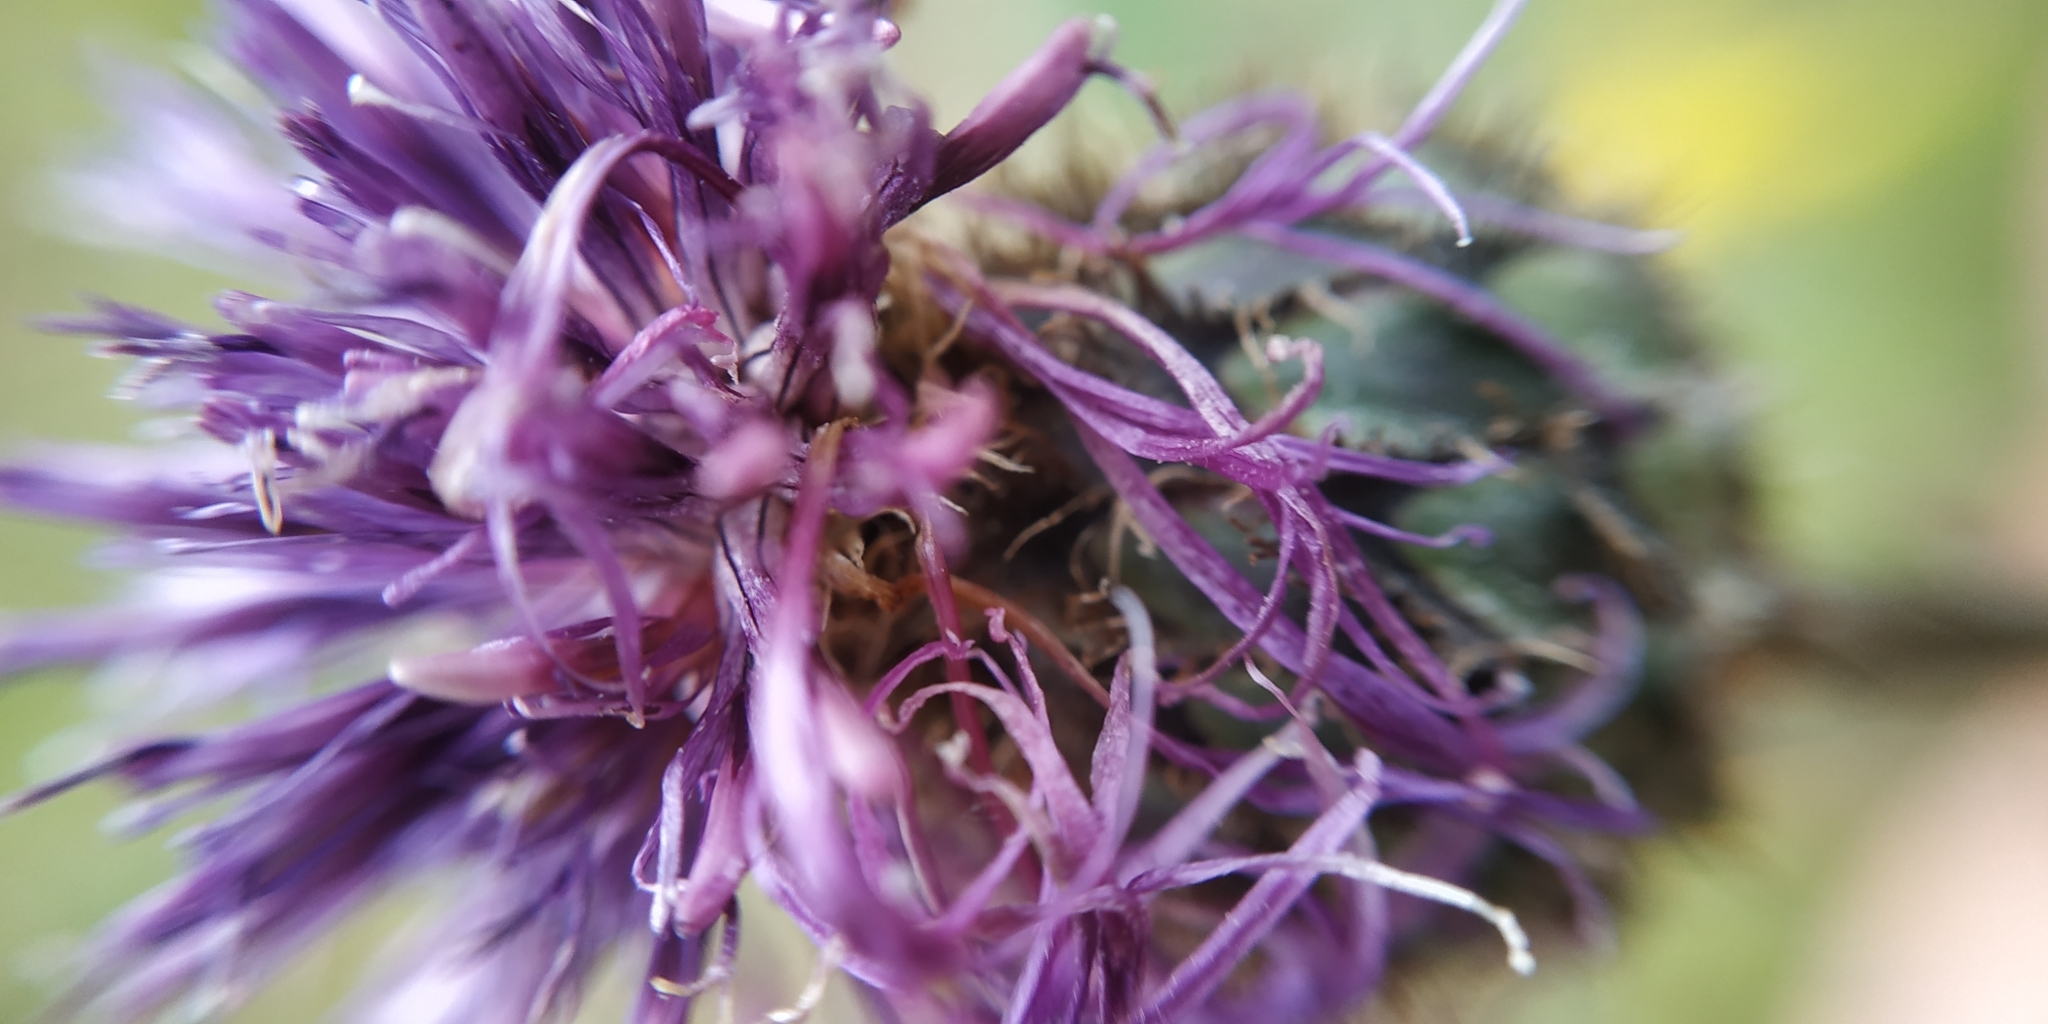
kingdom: Plantae
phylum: Tracheophyta
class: Magnoliopsida
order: Asterales
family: Asteraceae
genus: Centaurea
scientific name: Centaurea scabiosa
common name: Greater knapweed
